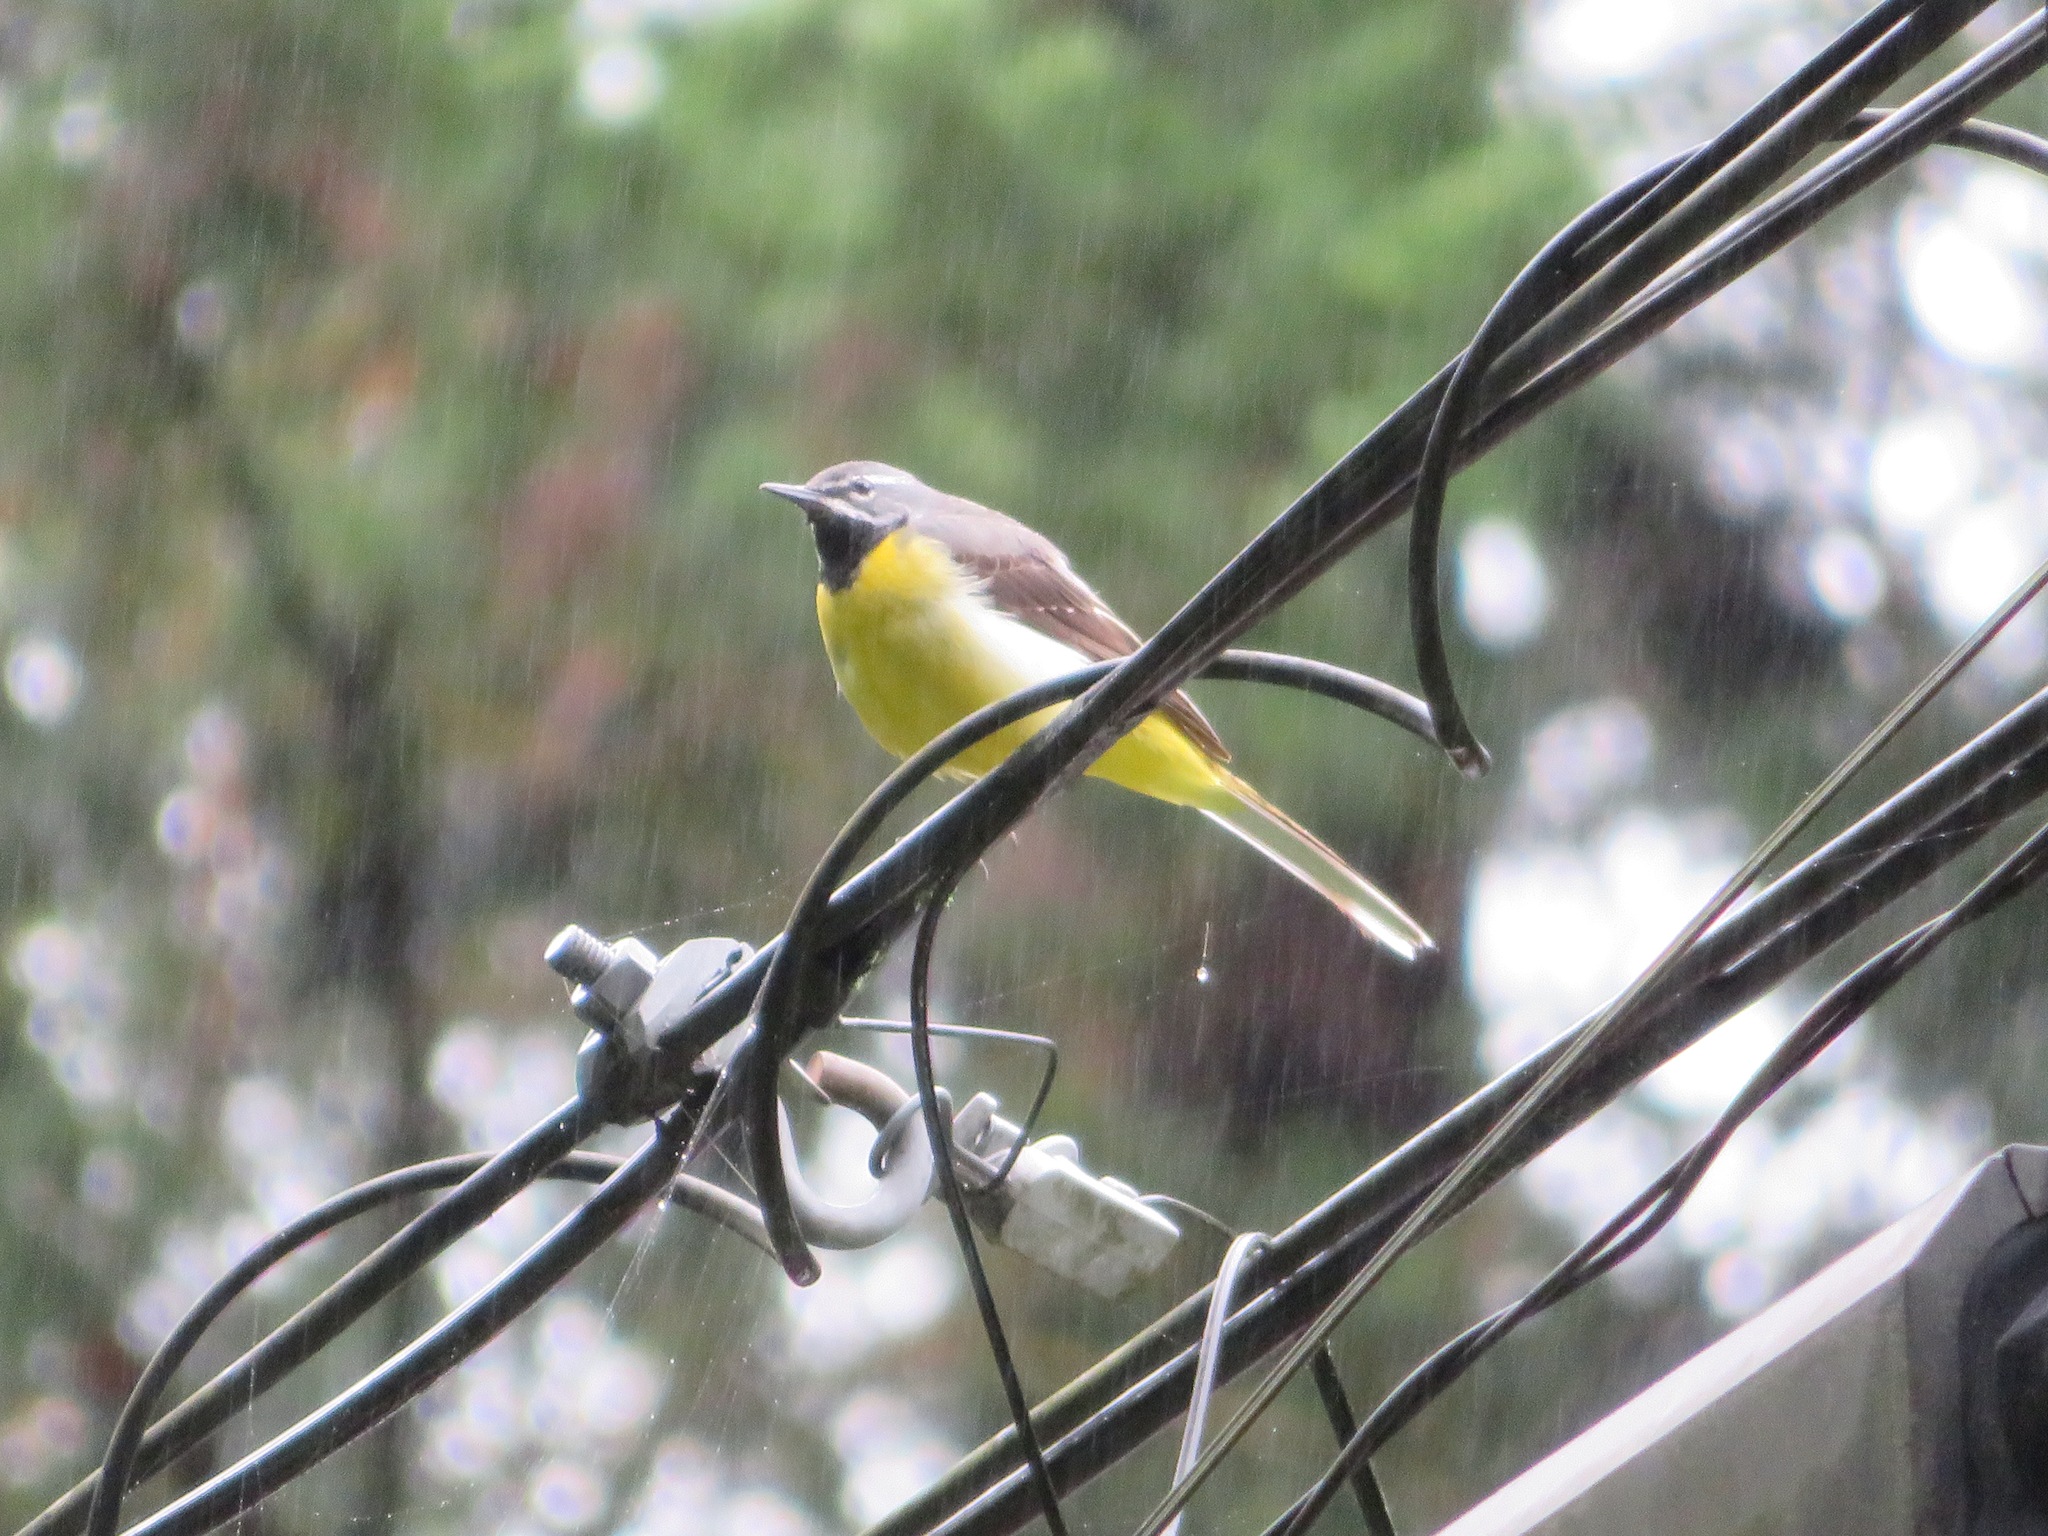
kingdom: Animalia
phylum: Chordata
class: Aves
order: Passeriformes
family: Motacillidae
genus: Motacilla
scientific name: Motacilla cinerea
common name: Grey wagtail
